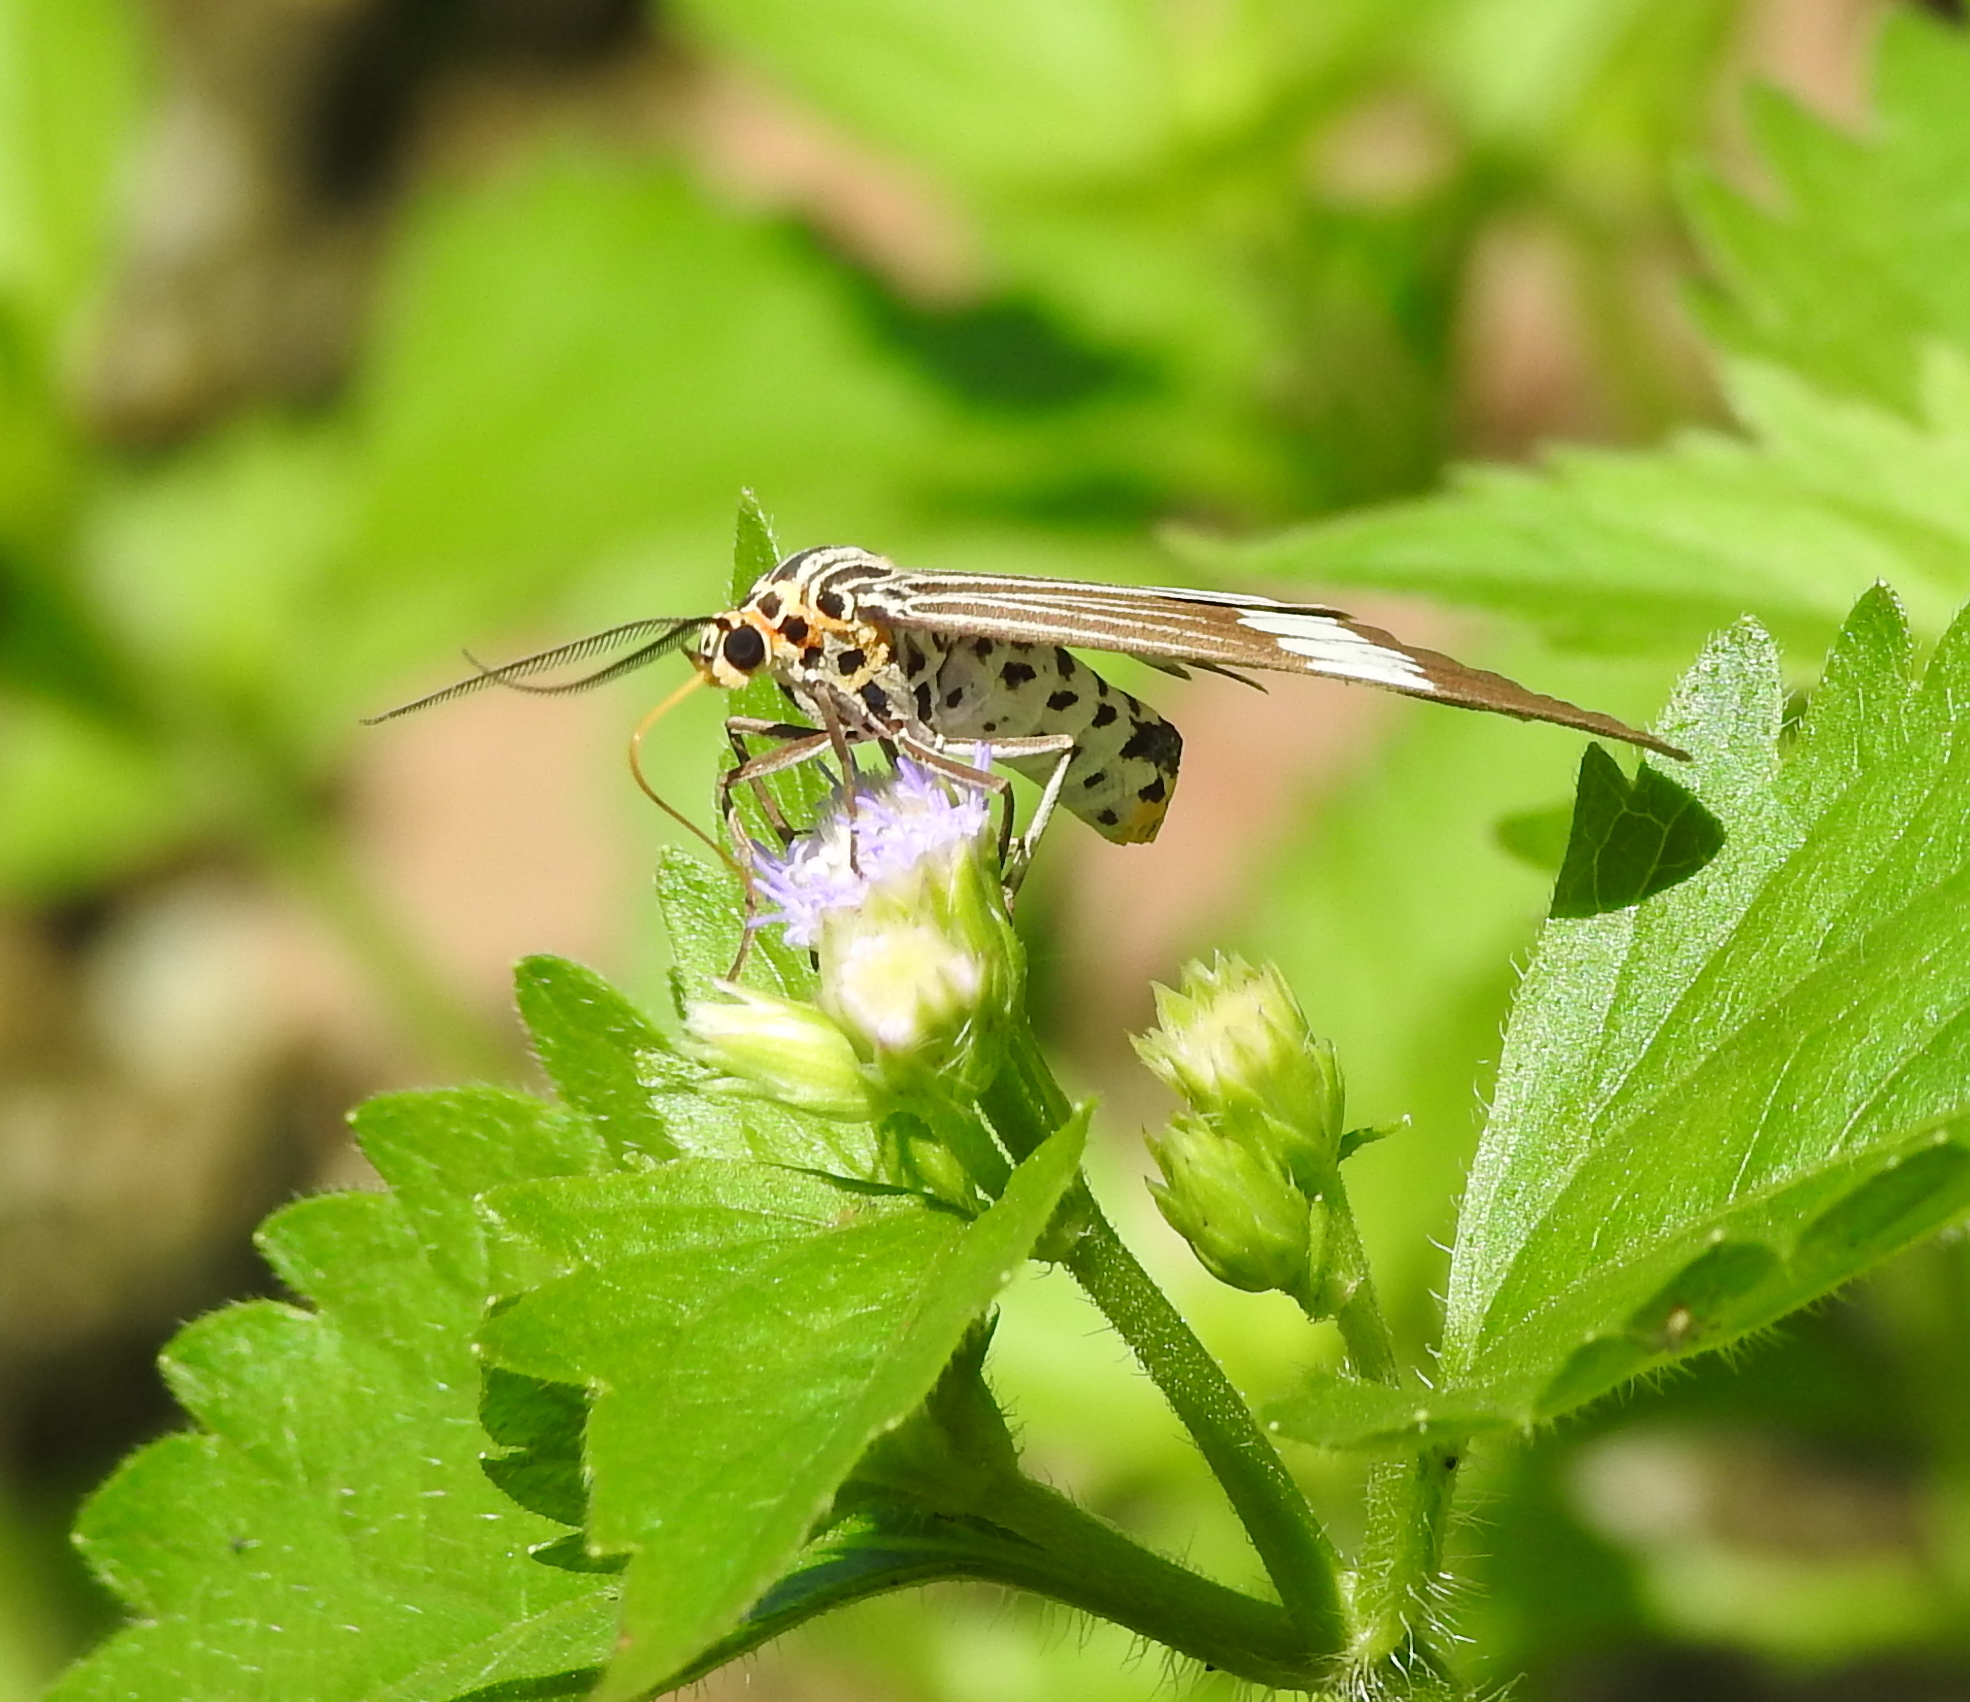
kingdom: Animalia
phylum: Arthropoda
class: Insecta
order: Lepidoptera
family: Erebidae
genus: Nyctemera
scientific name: Nyctemera baulus
